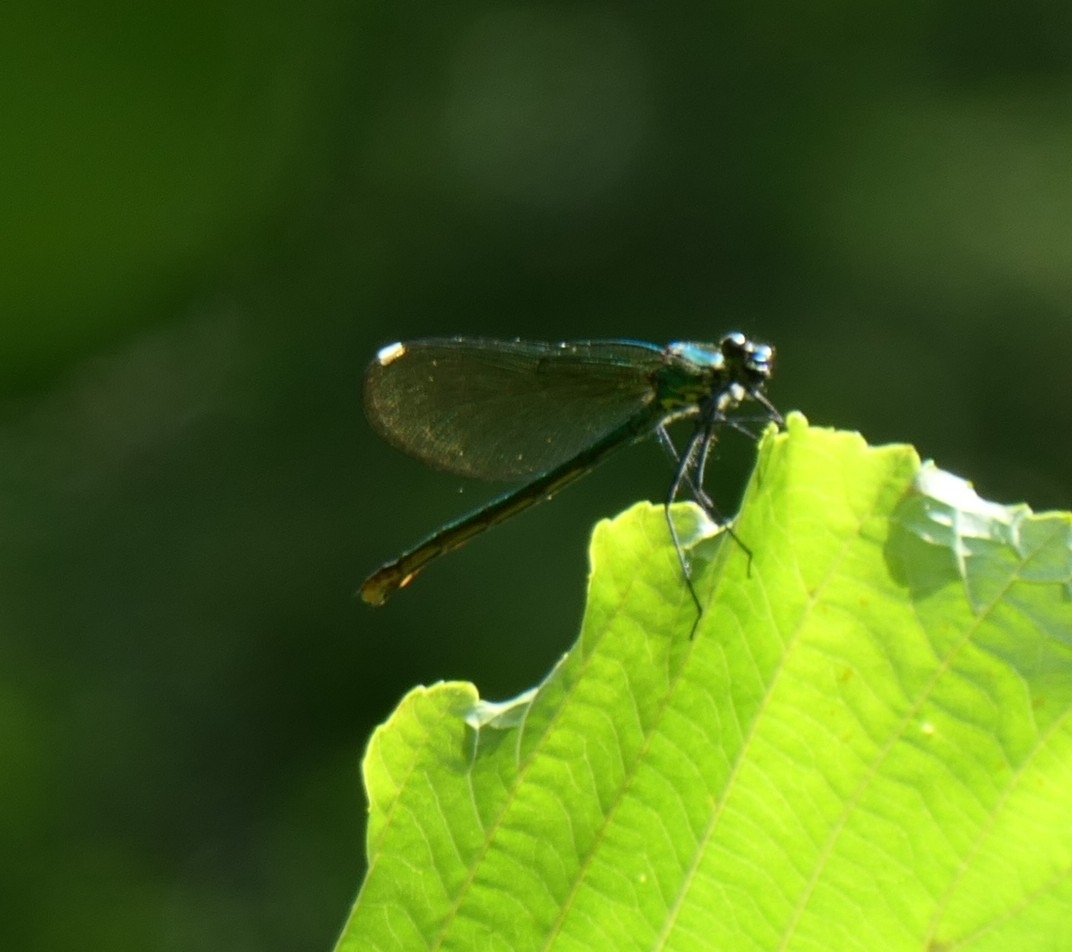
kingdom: Animalia
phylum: Arthropoda
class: Insecta
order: Odonata
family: Calopterygidae
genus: Calopteryx
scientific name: Calopteryx splendens
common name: Banded demoiselle
